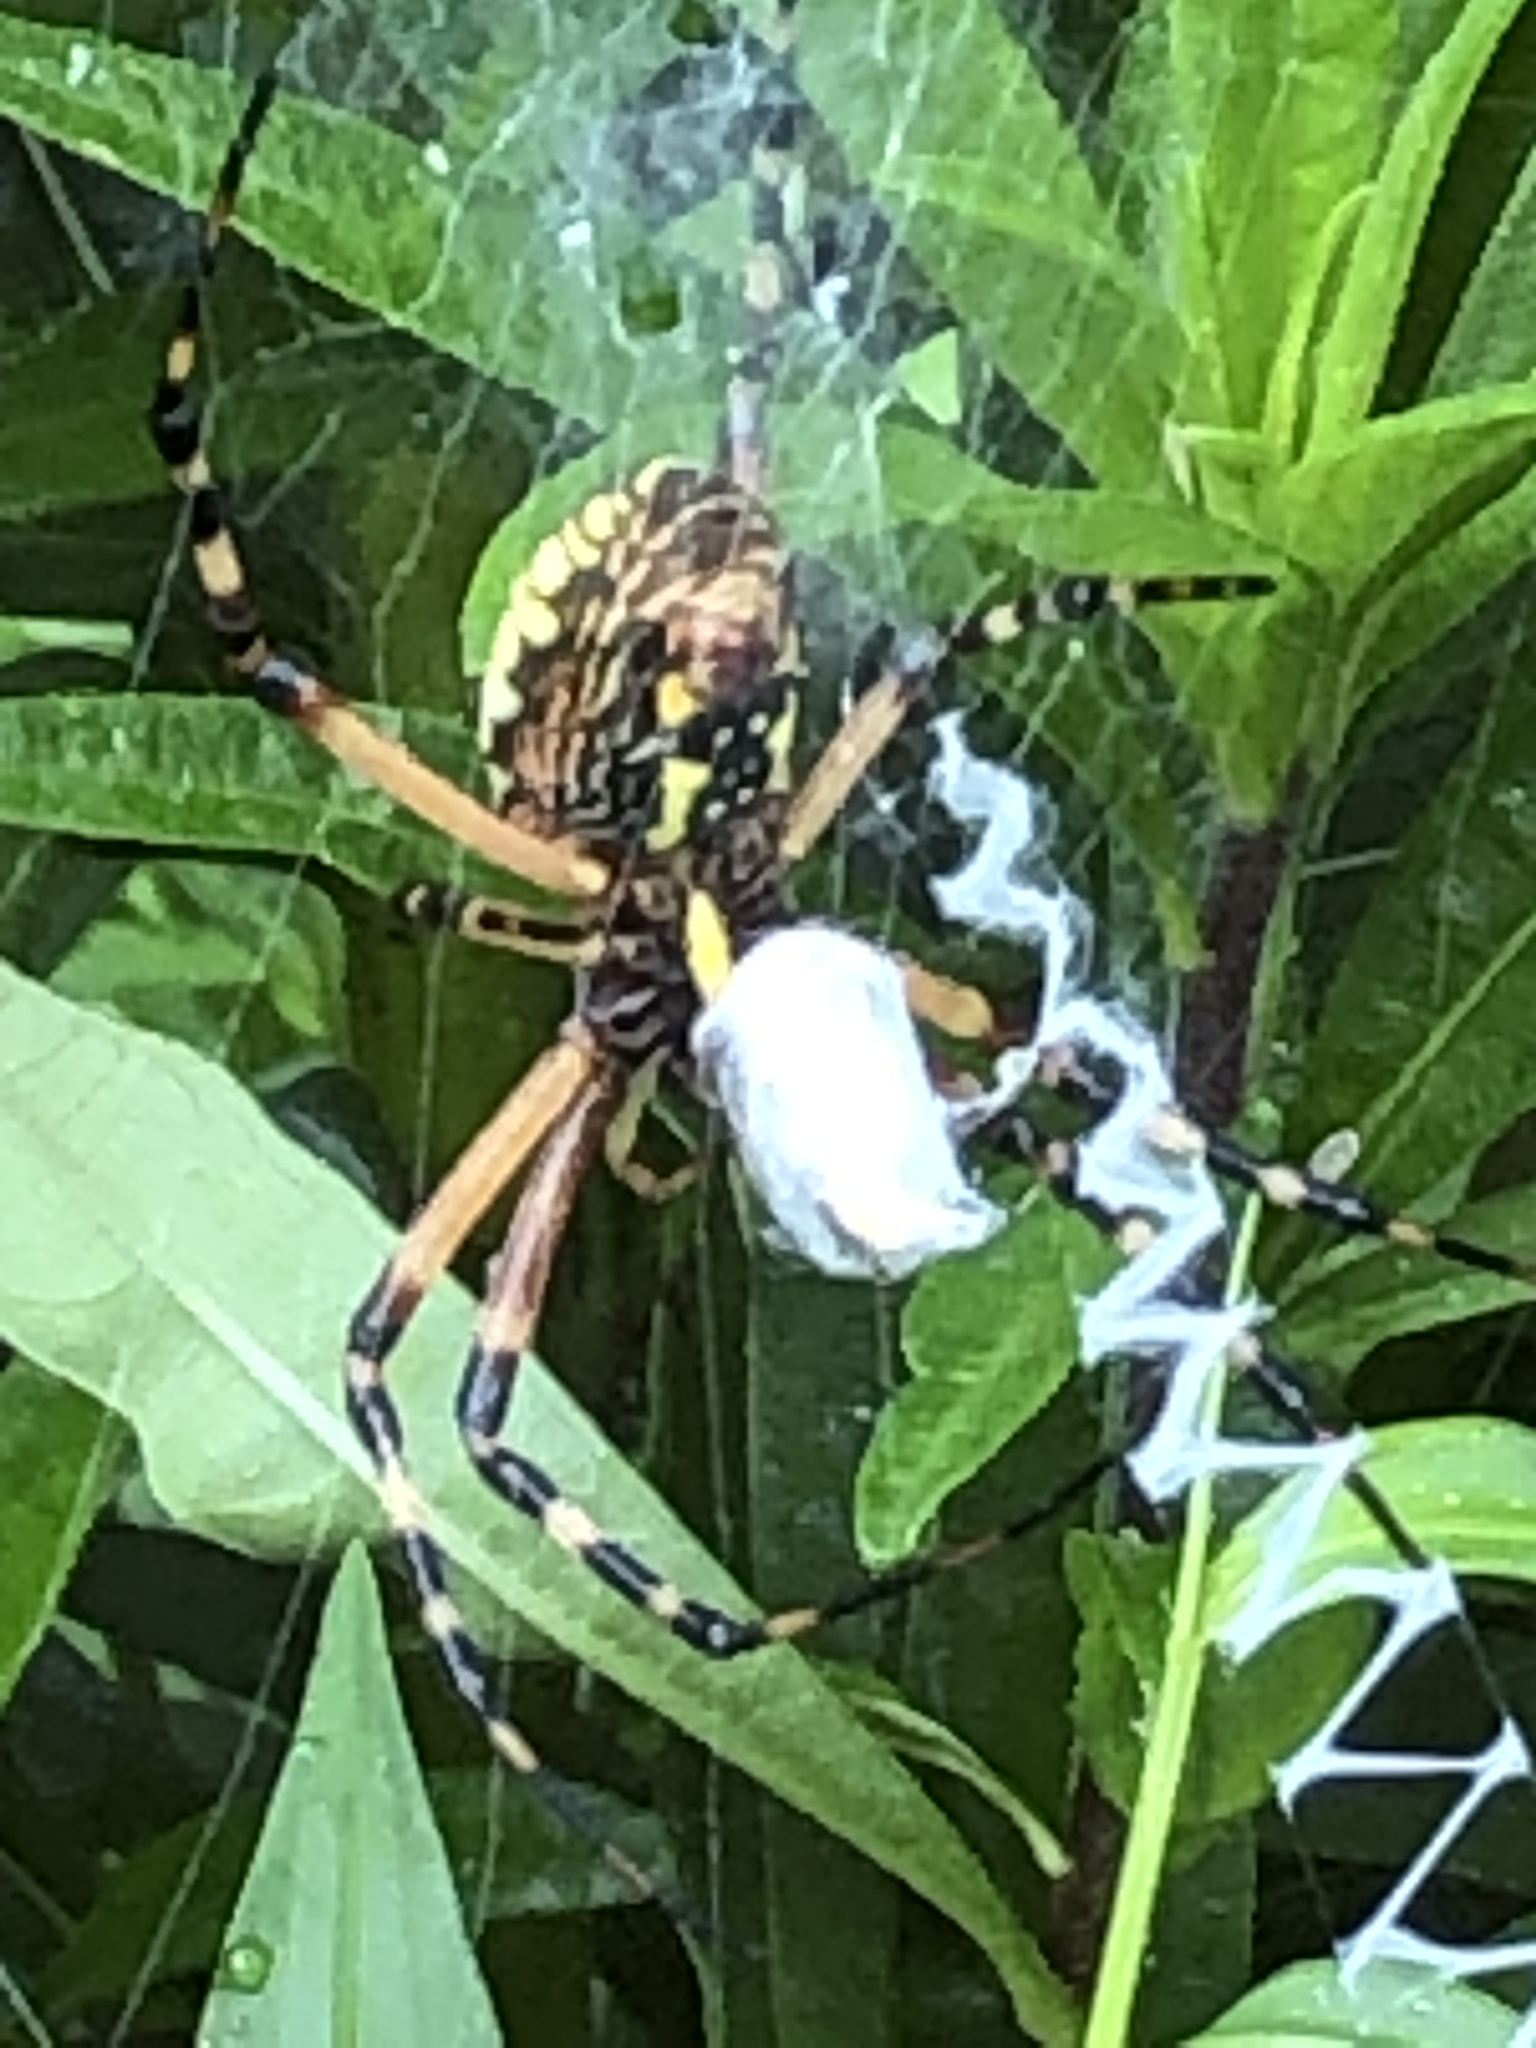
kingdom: Animalia
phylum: Arthropoda
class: Arachnida
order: Araneae
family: Araneidae
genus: Argiope
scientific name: Argiope aurantia
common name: Orb weavers
